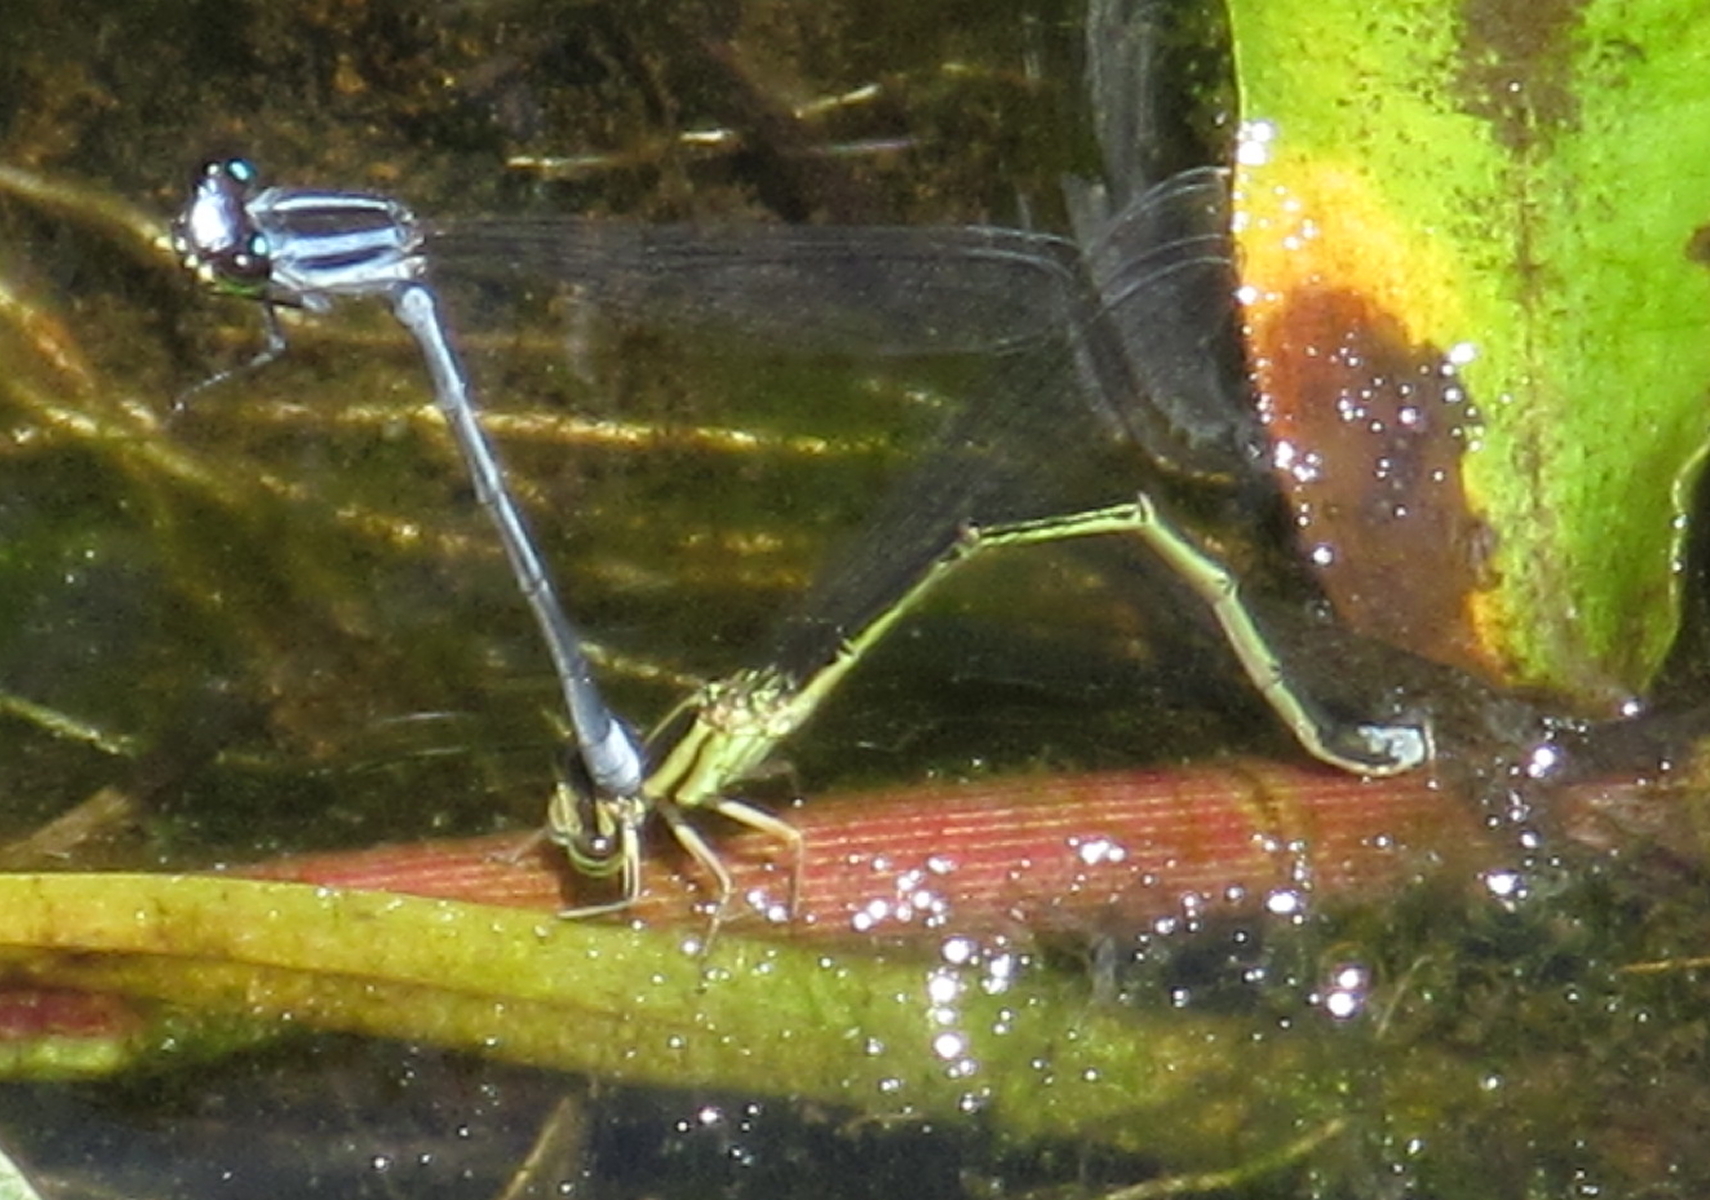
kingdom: Animalia
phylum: Arthropoda
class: Insecta
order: Odonata
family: Coenagrionidae
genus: Pseudagrion
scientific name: Pseudagrion kersteni
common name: Powder-faced sprite
